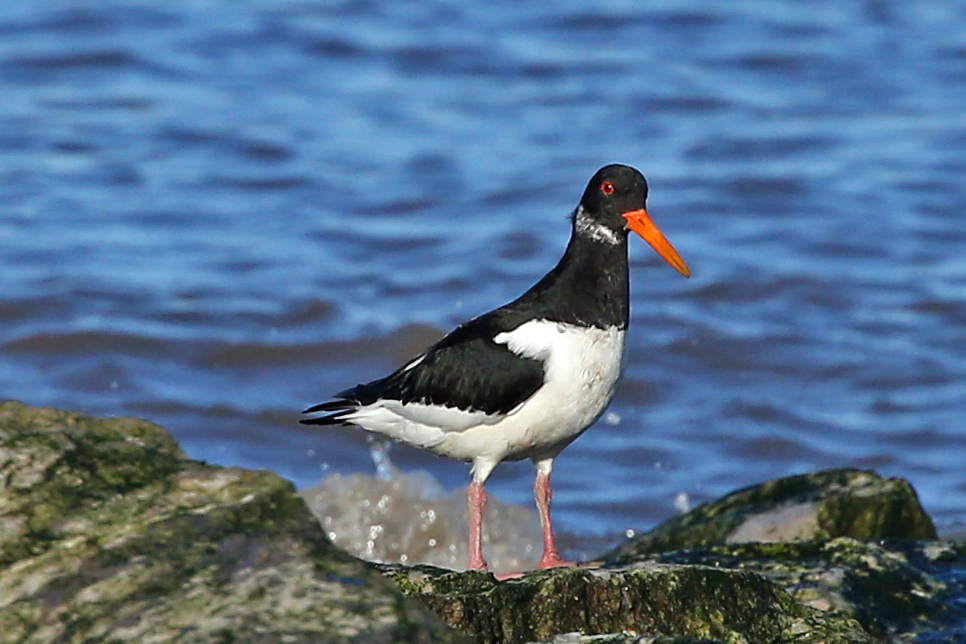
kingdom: Animalia
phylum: Chordata
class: Aves
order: Charadriiformes
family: Haematopodidae
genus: Haematopus
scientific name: Haematopus ostralegus
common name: Eurasian oystercatcher
